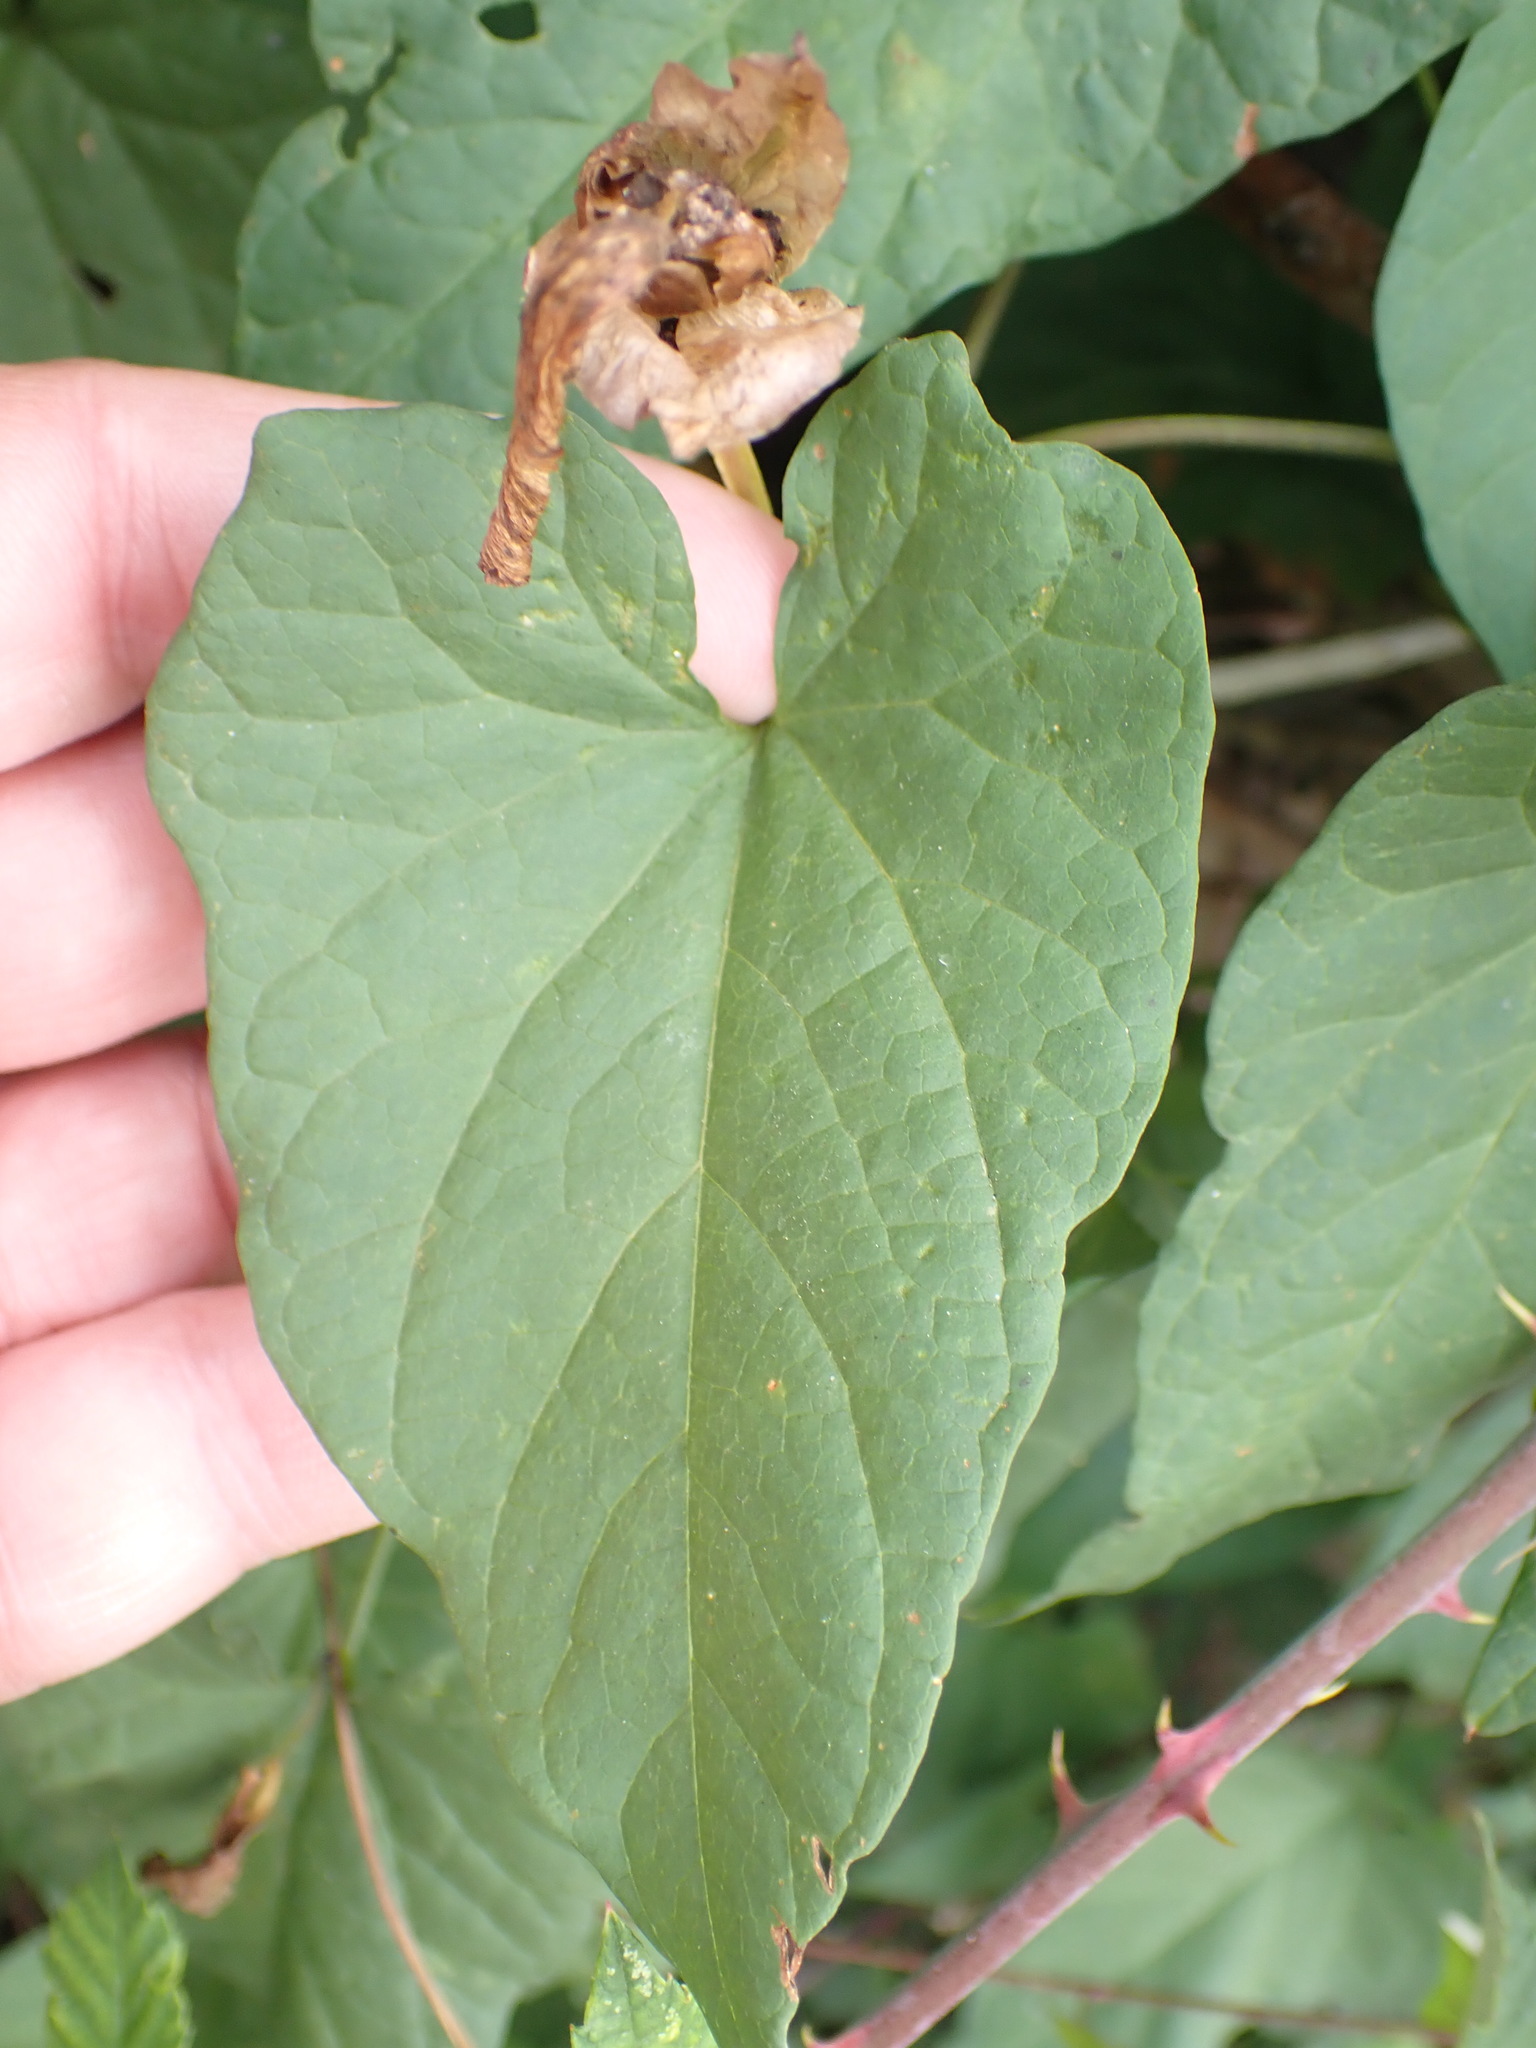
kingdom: Plantae
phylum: Tracheophyta
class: Magnoliopsida
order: Solanales
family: Convolvulaceae
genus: Calystegia
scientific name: Calystegia sepium
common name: Hedge bindweed
